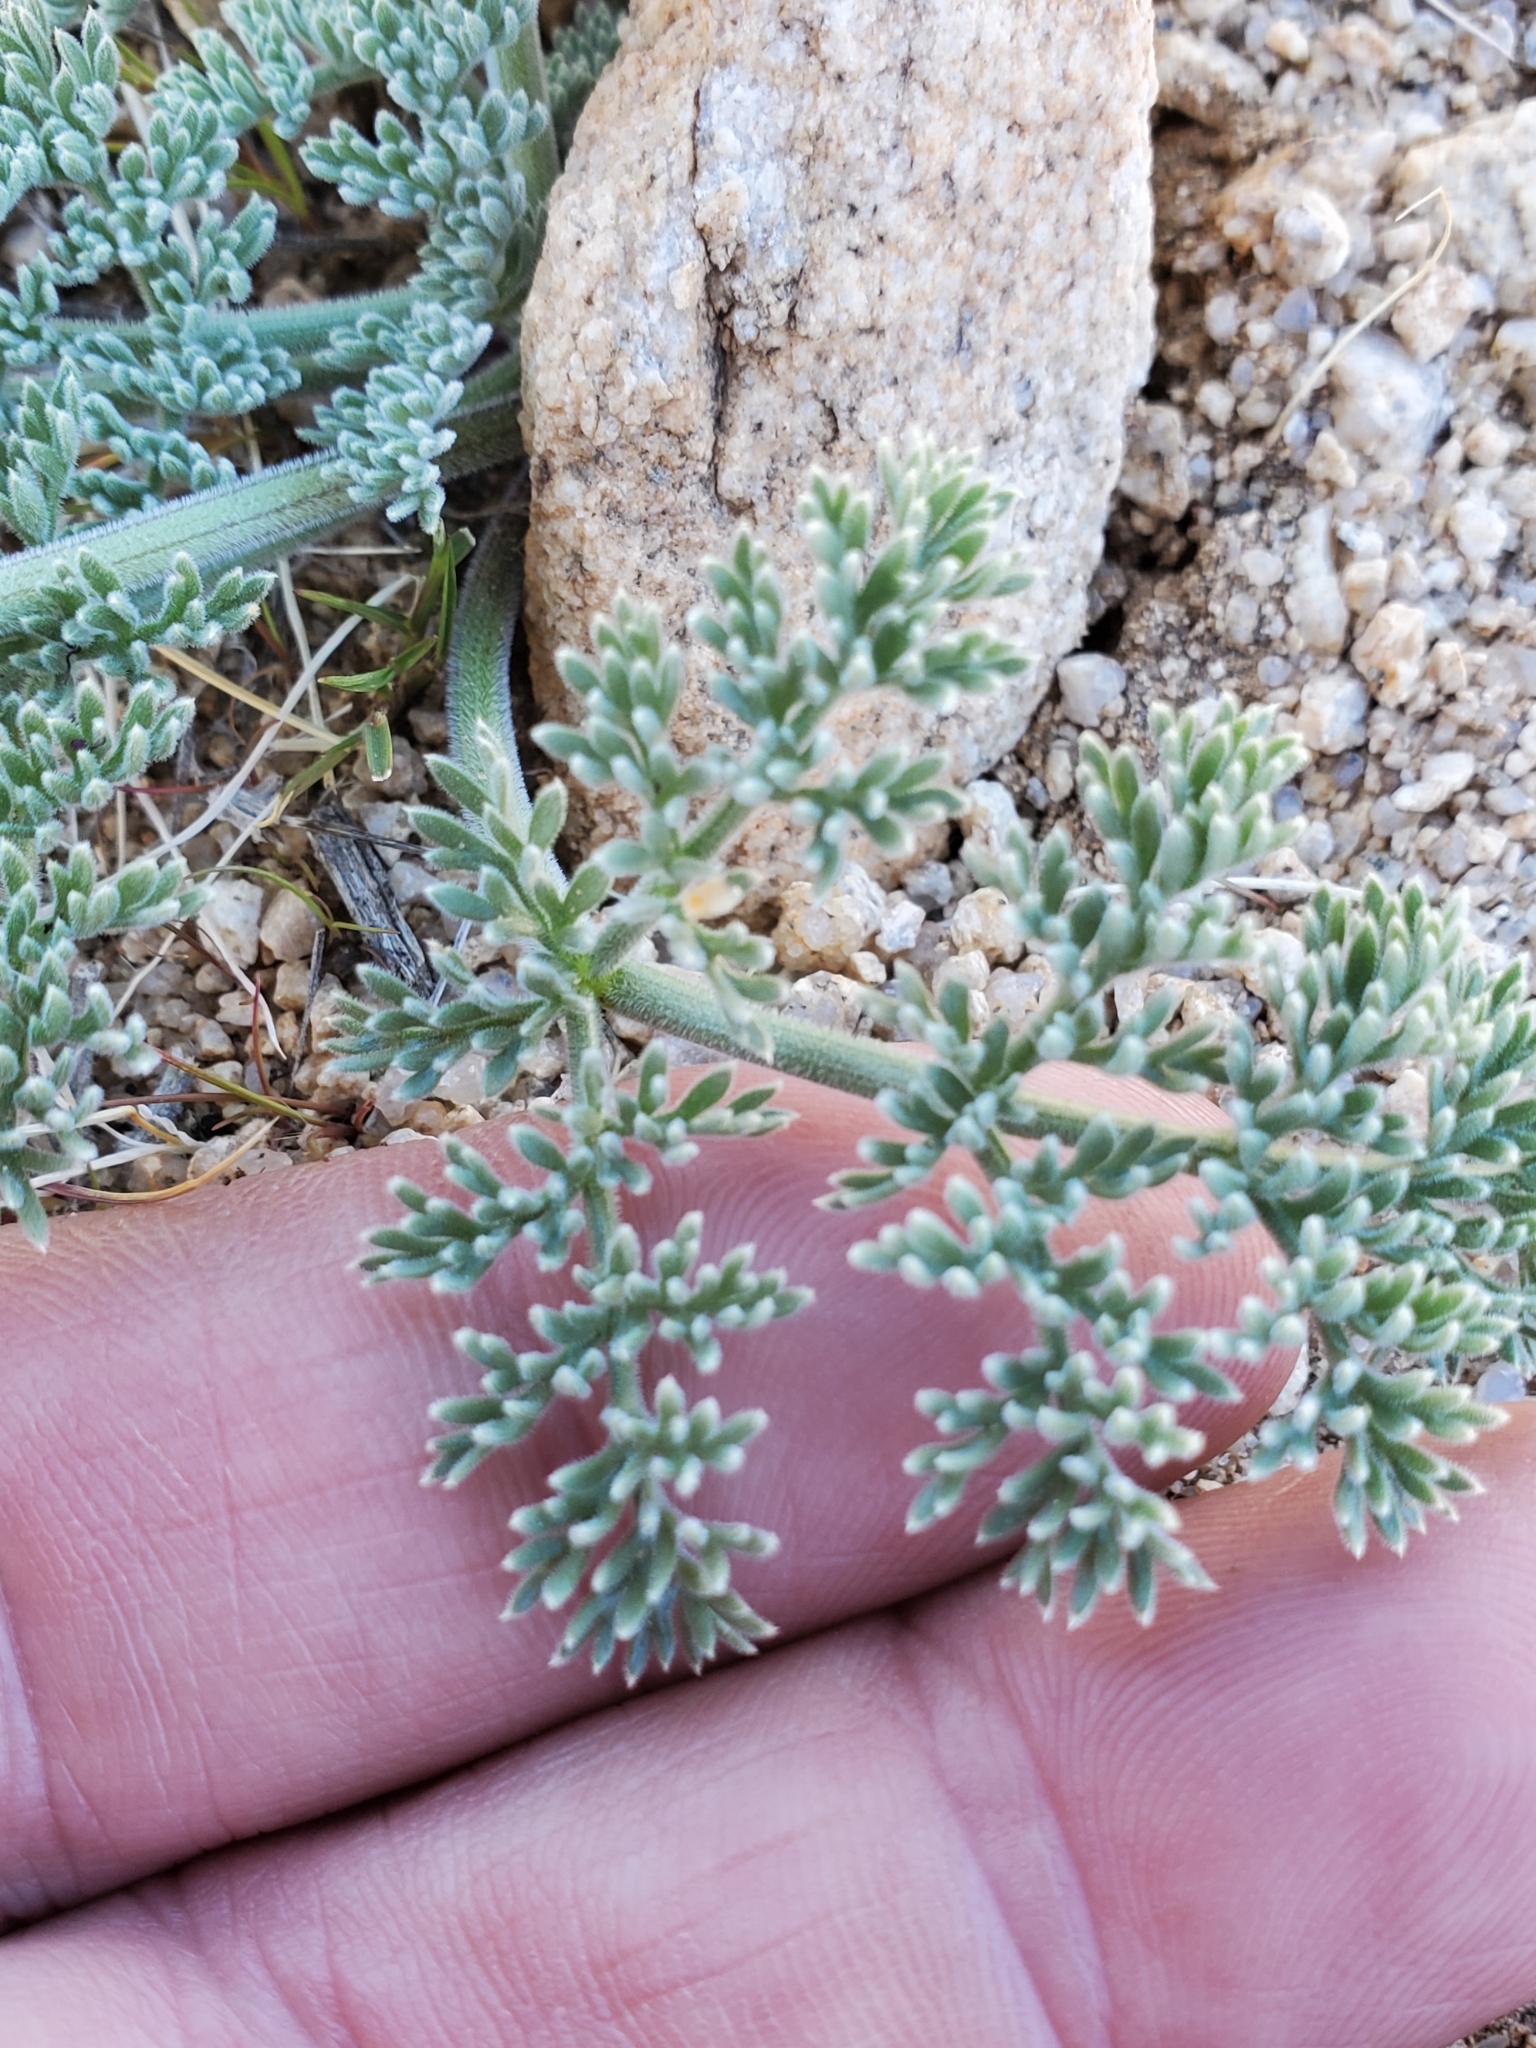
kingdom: Plantae
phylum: Tracheophyta
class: Magnoliopsida
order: Apiales
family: Apiaceae
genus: Lomatium
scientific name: Lomatium mohavense
